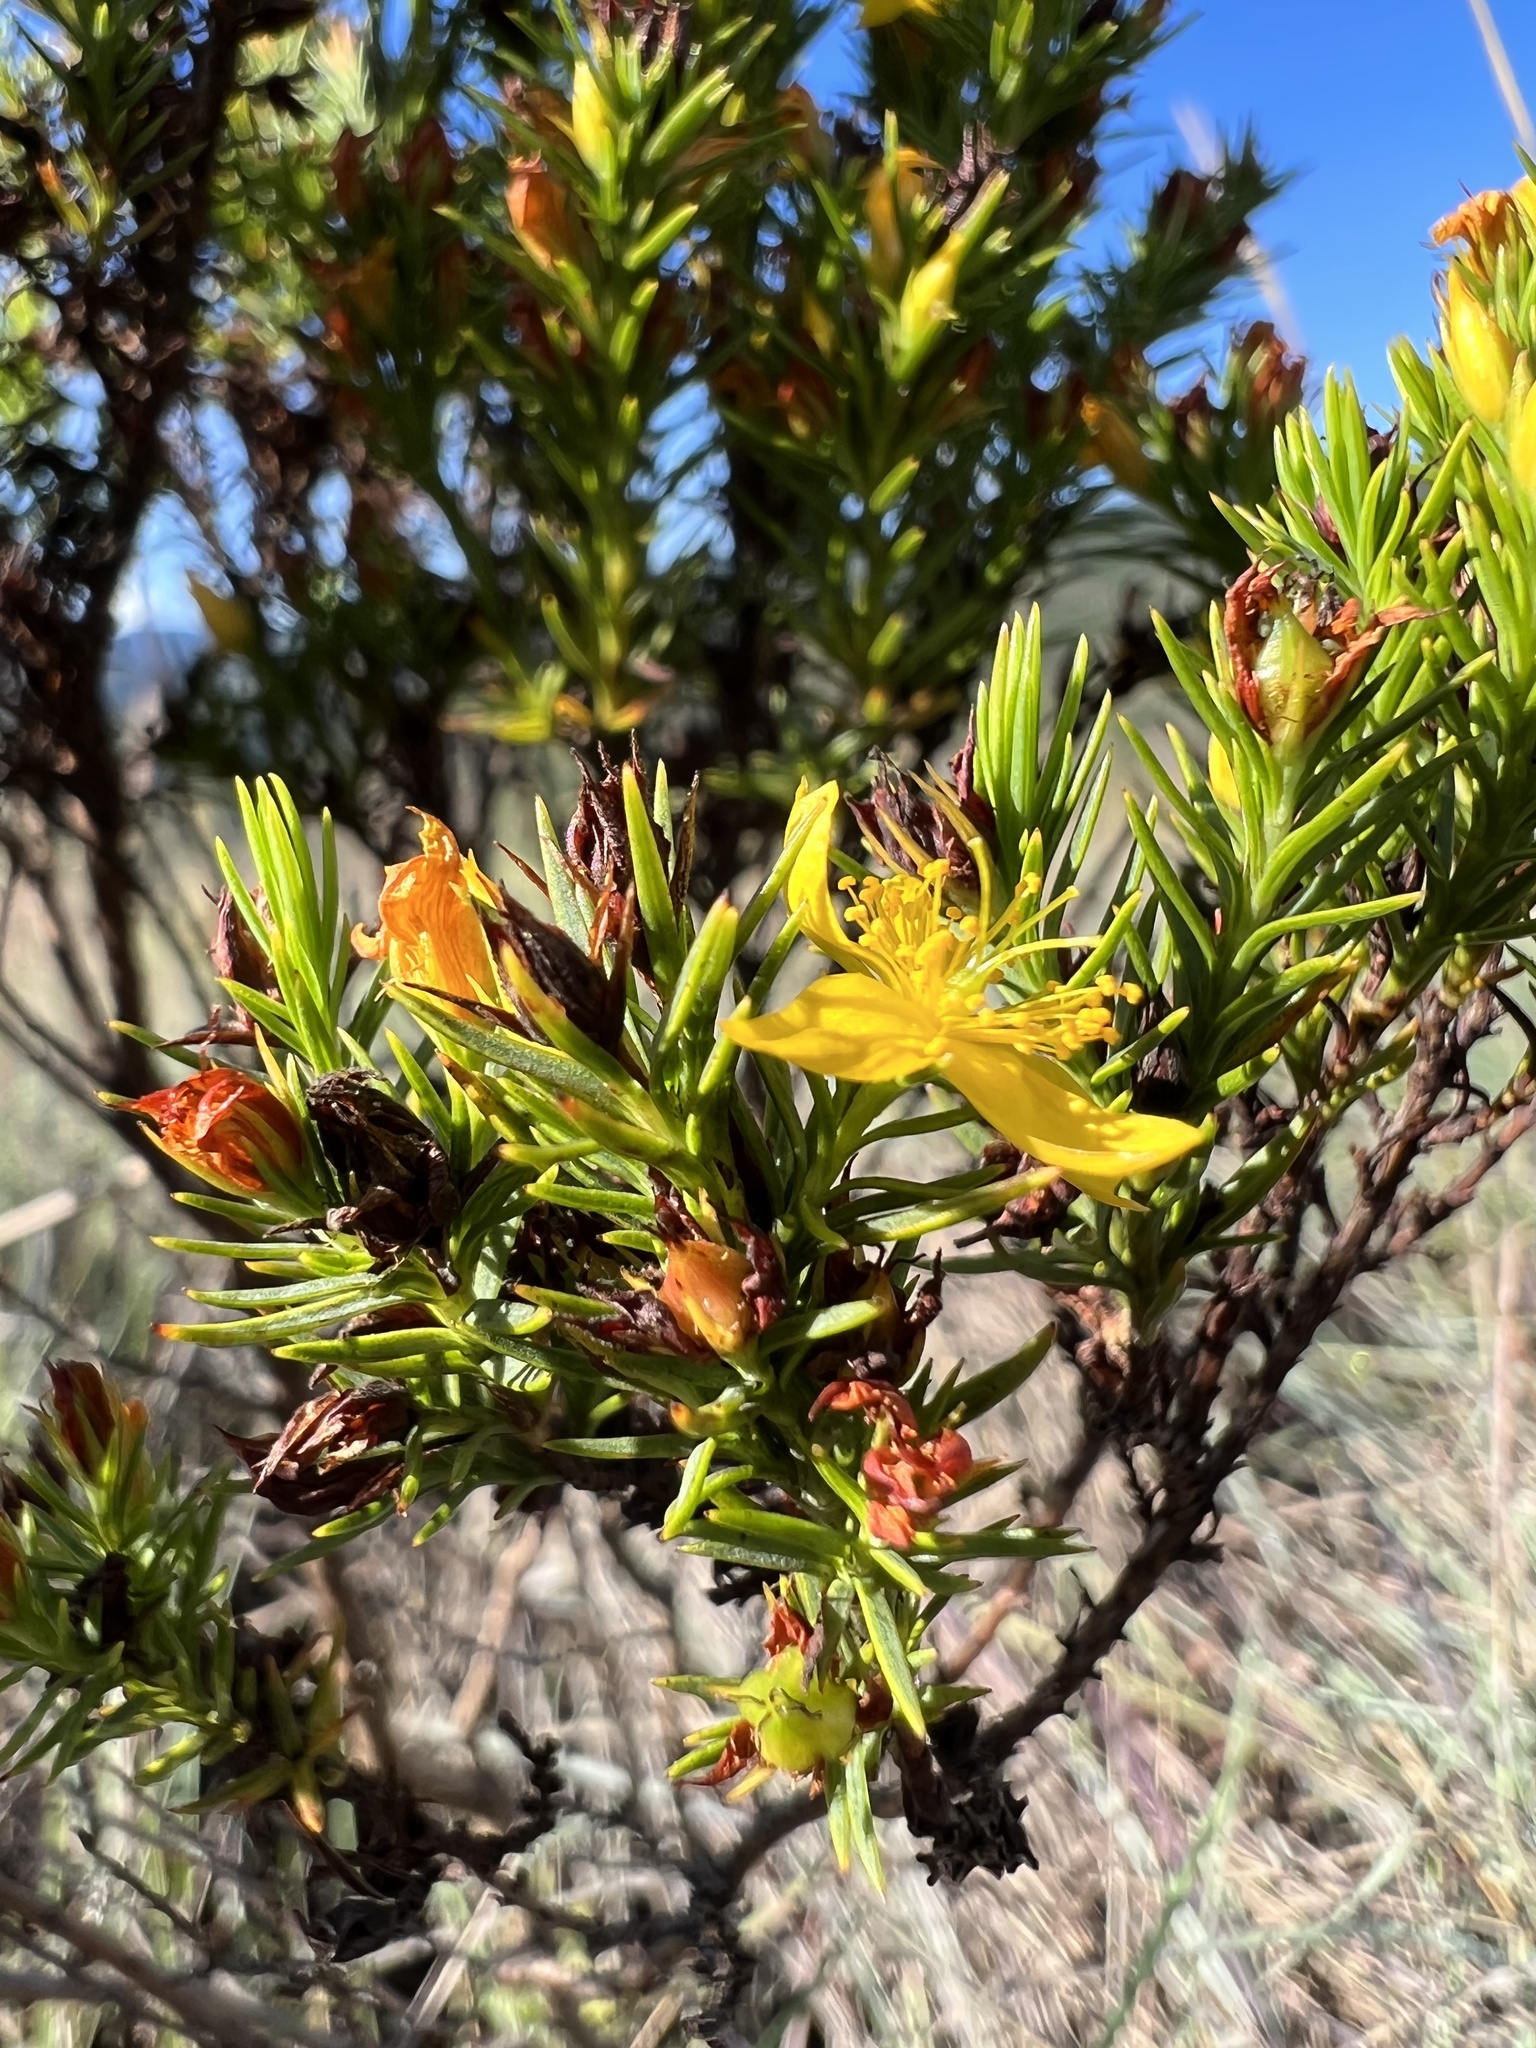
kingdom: Plantae
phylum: Tracheophyta
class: Magnoliopsida
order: Malpighiales
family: Hypericaceae
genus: Hypericum
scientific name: Hypericum juniperinum
